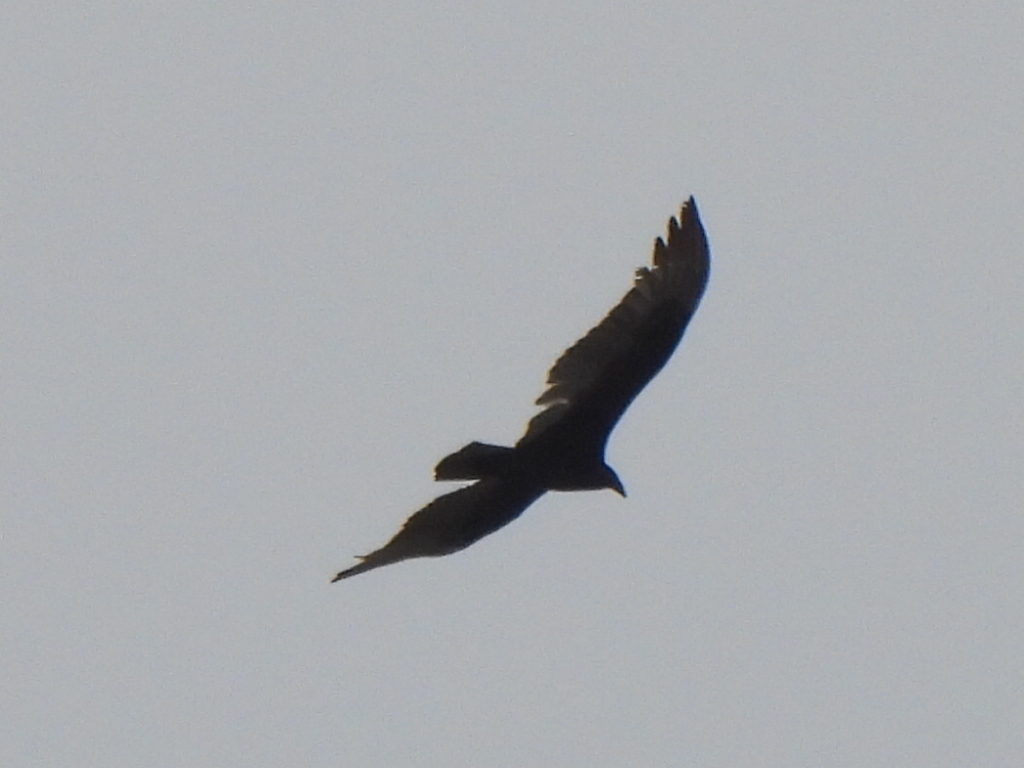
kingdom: Animalia
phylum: Chordata
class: Aves
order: Accipitriformes
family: Cathartidae
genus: Cathartes
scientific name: Cathartes aura
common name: Turkey vulture
